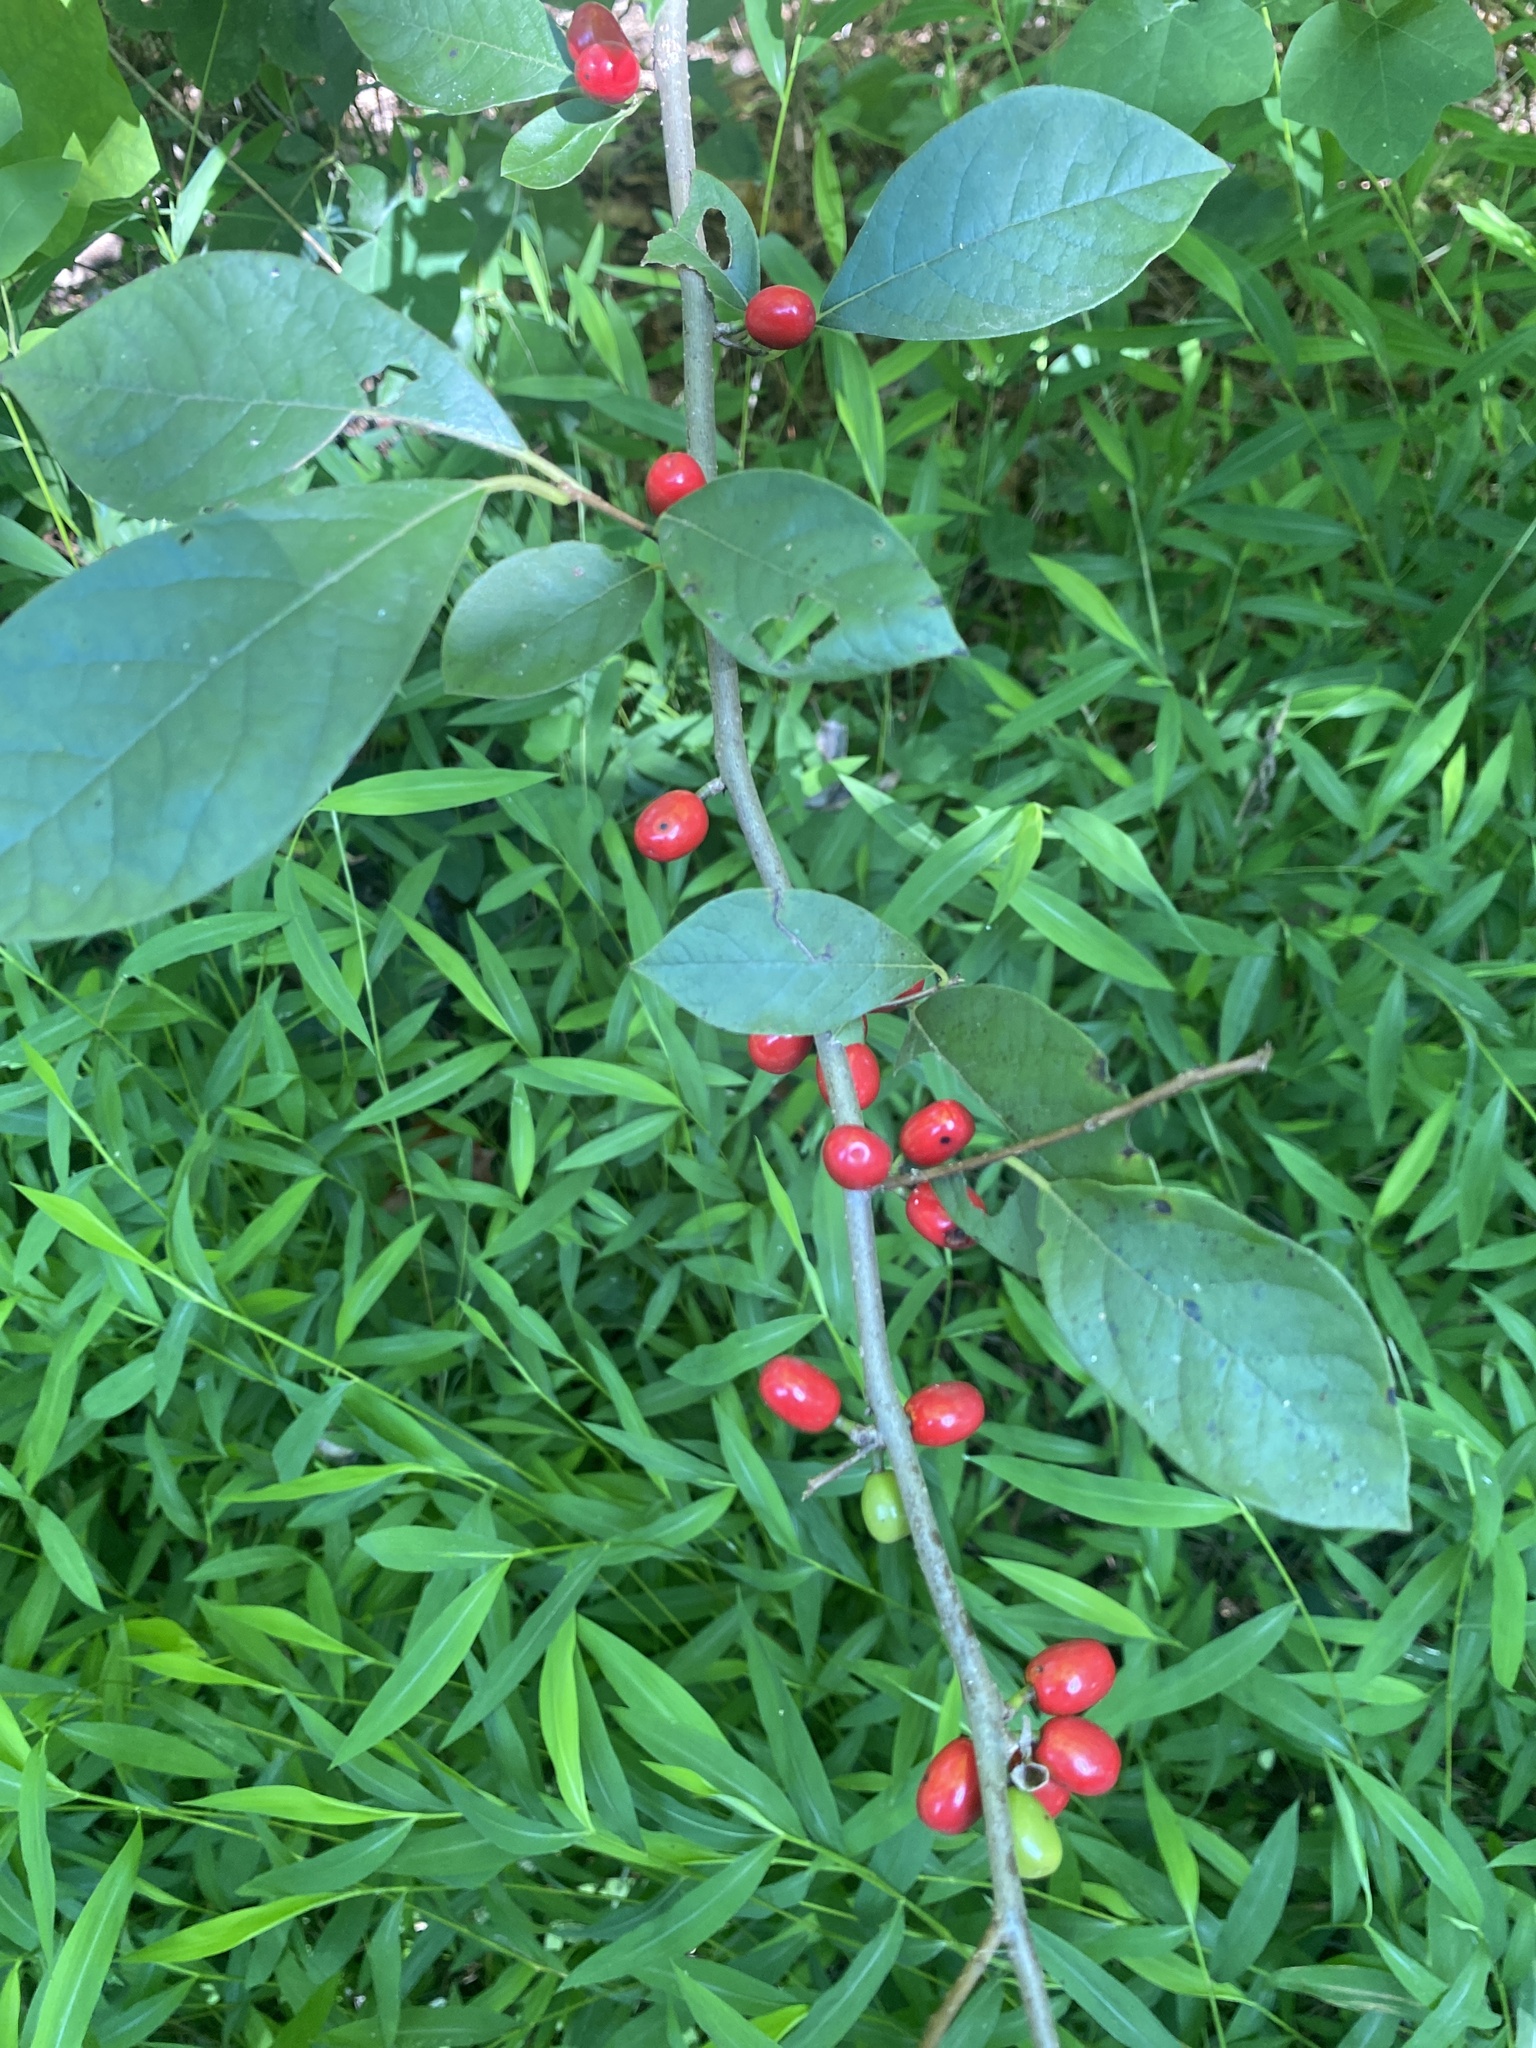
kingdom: Plantae
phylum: Tracheophyta
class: Magnoliopsida
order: Laurales
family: Lauraceae
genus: Lindera
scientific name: Lindera benzoin
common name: Spicebush
